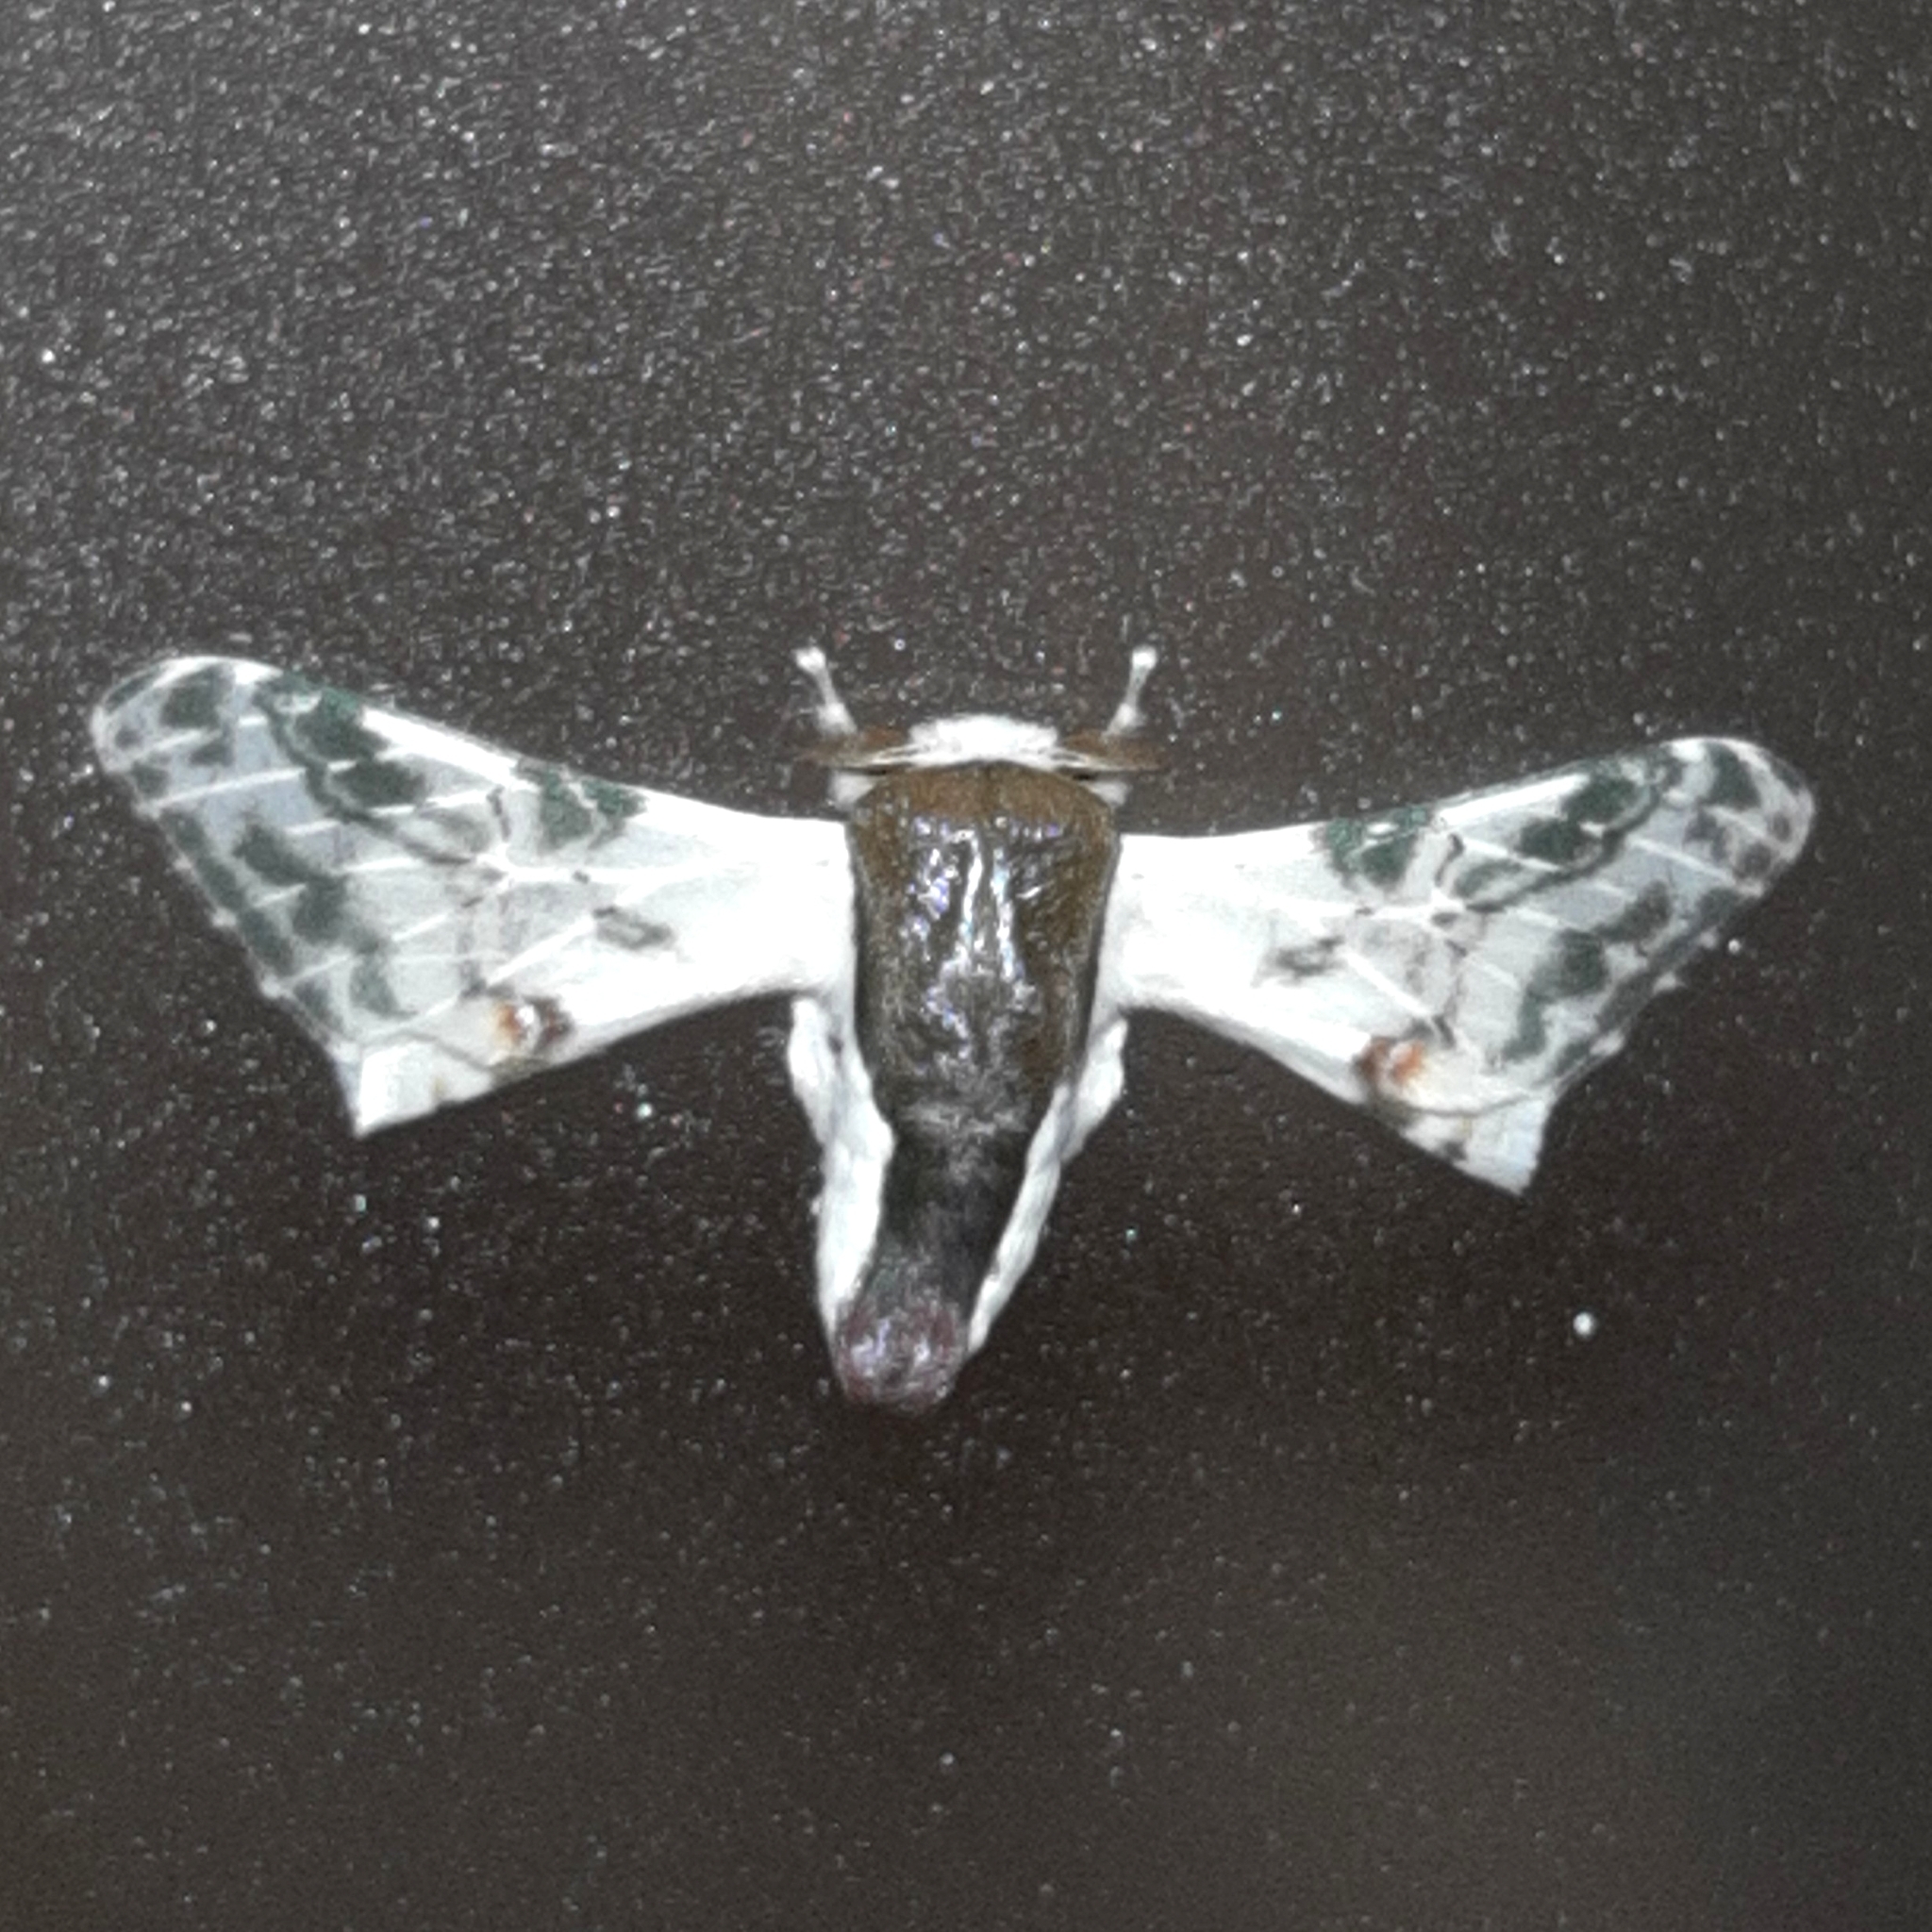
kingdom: Animalia
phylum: Arthropoda
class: Insecta
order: Lepidoptera
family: Bombycidae
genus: Colla
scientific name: Colla rhodope
